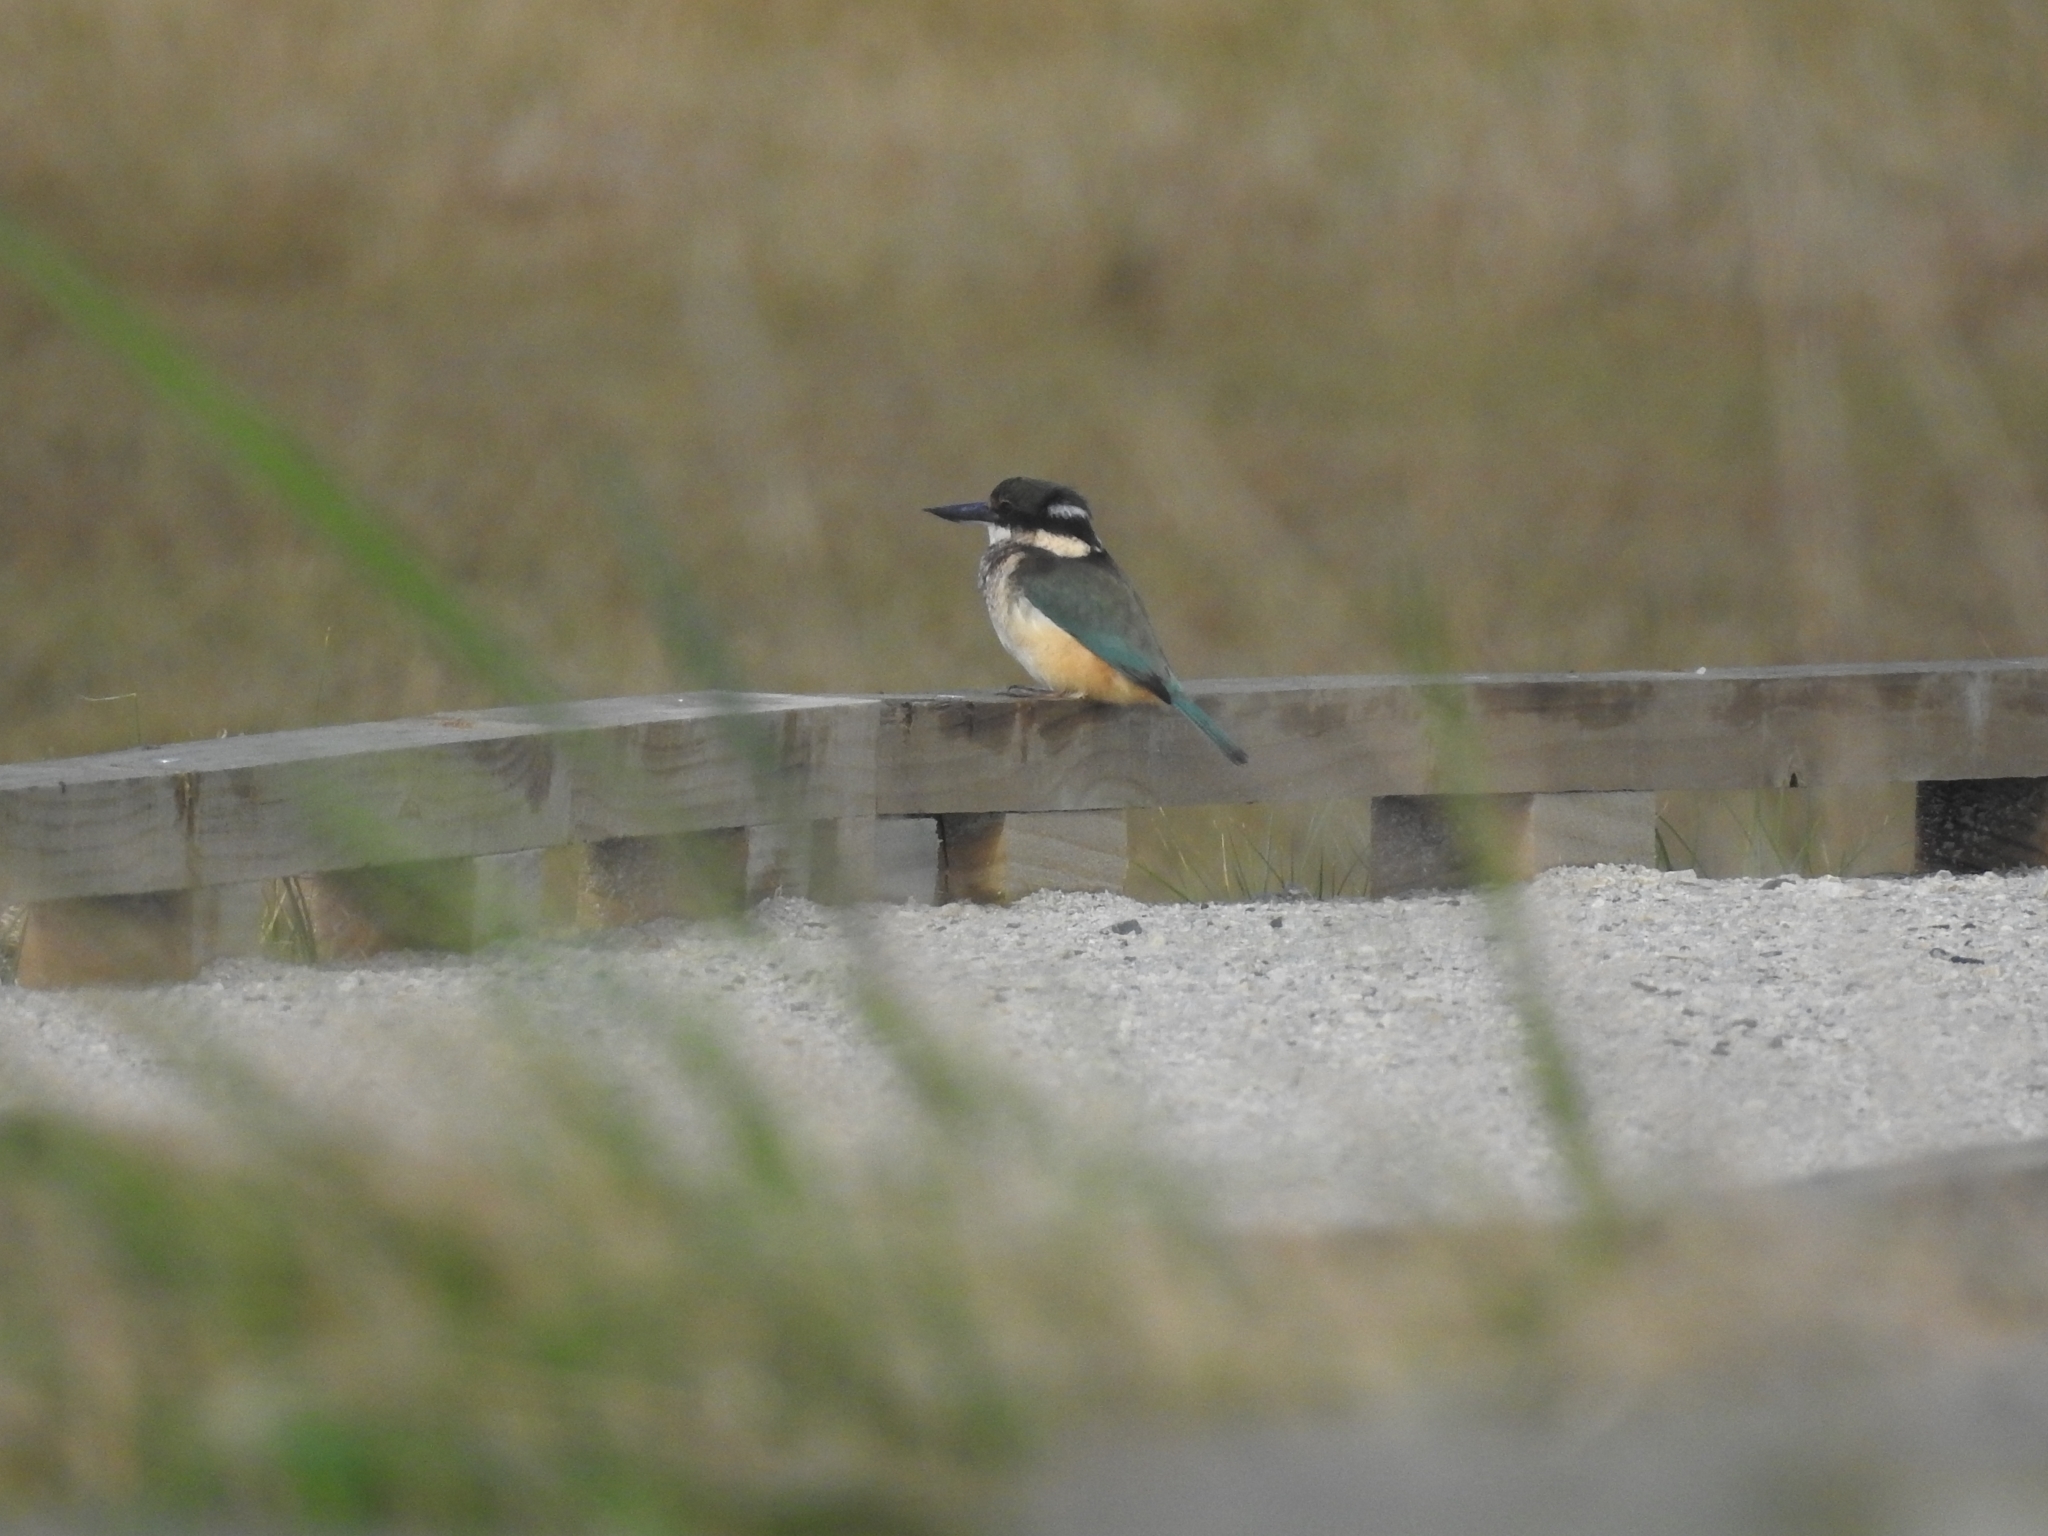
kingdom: Animalia
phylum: Chordata
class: Aves
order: Coraciiformes
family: Alcedinidae
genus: Todiramphus
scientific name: Todiramphus sanctus
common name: Sacred kingfisher
